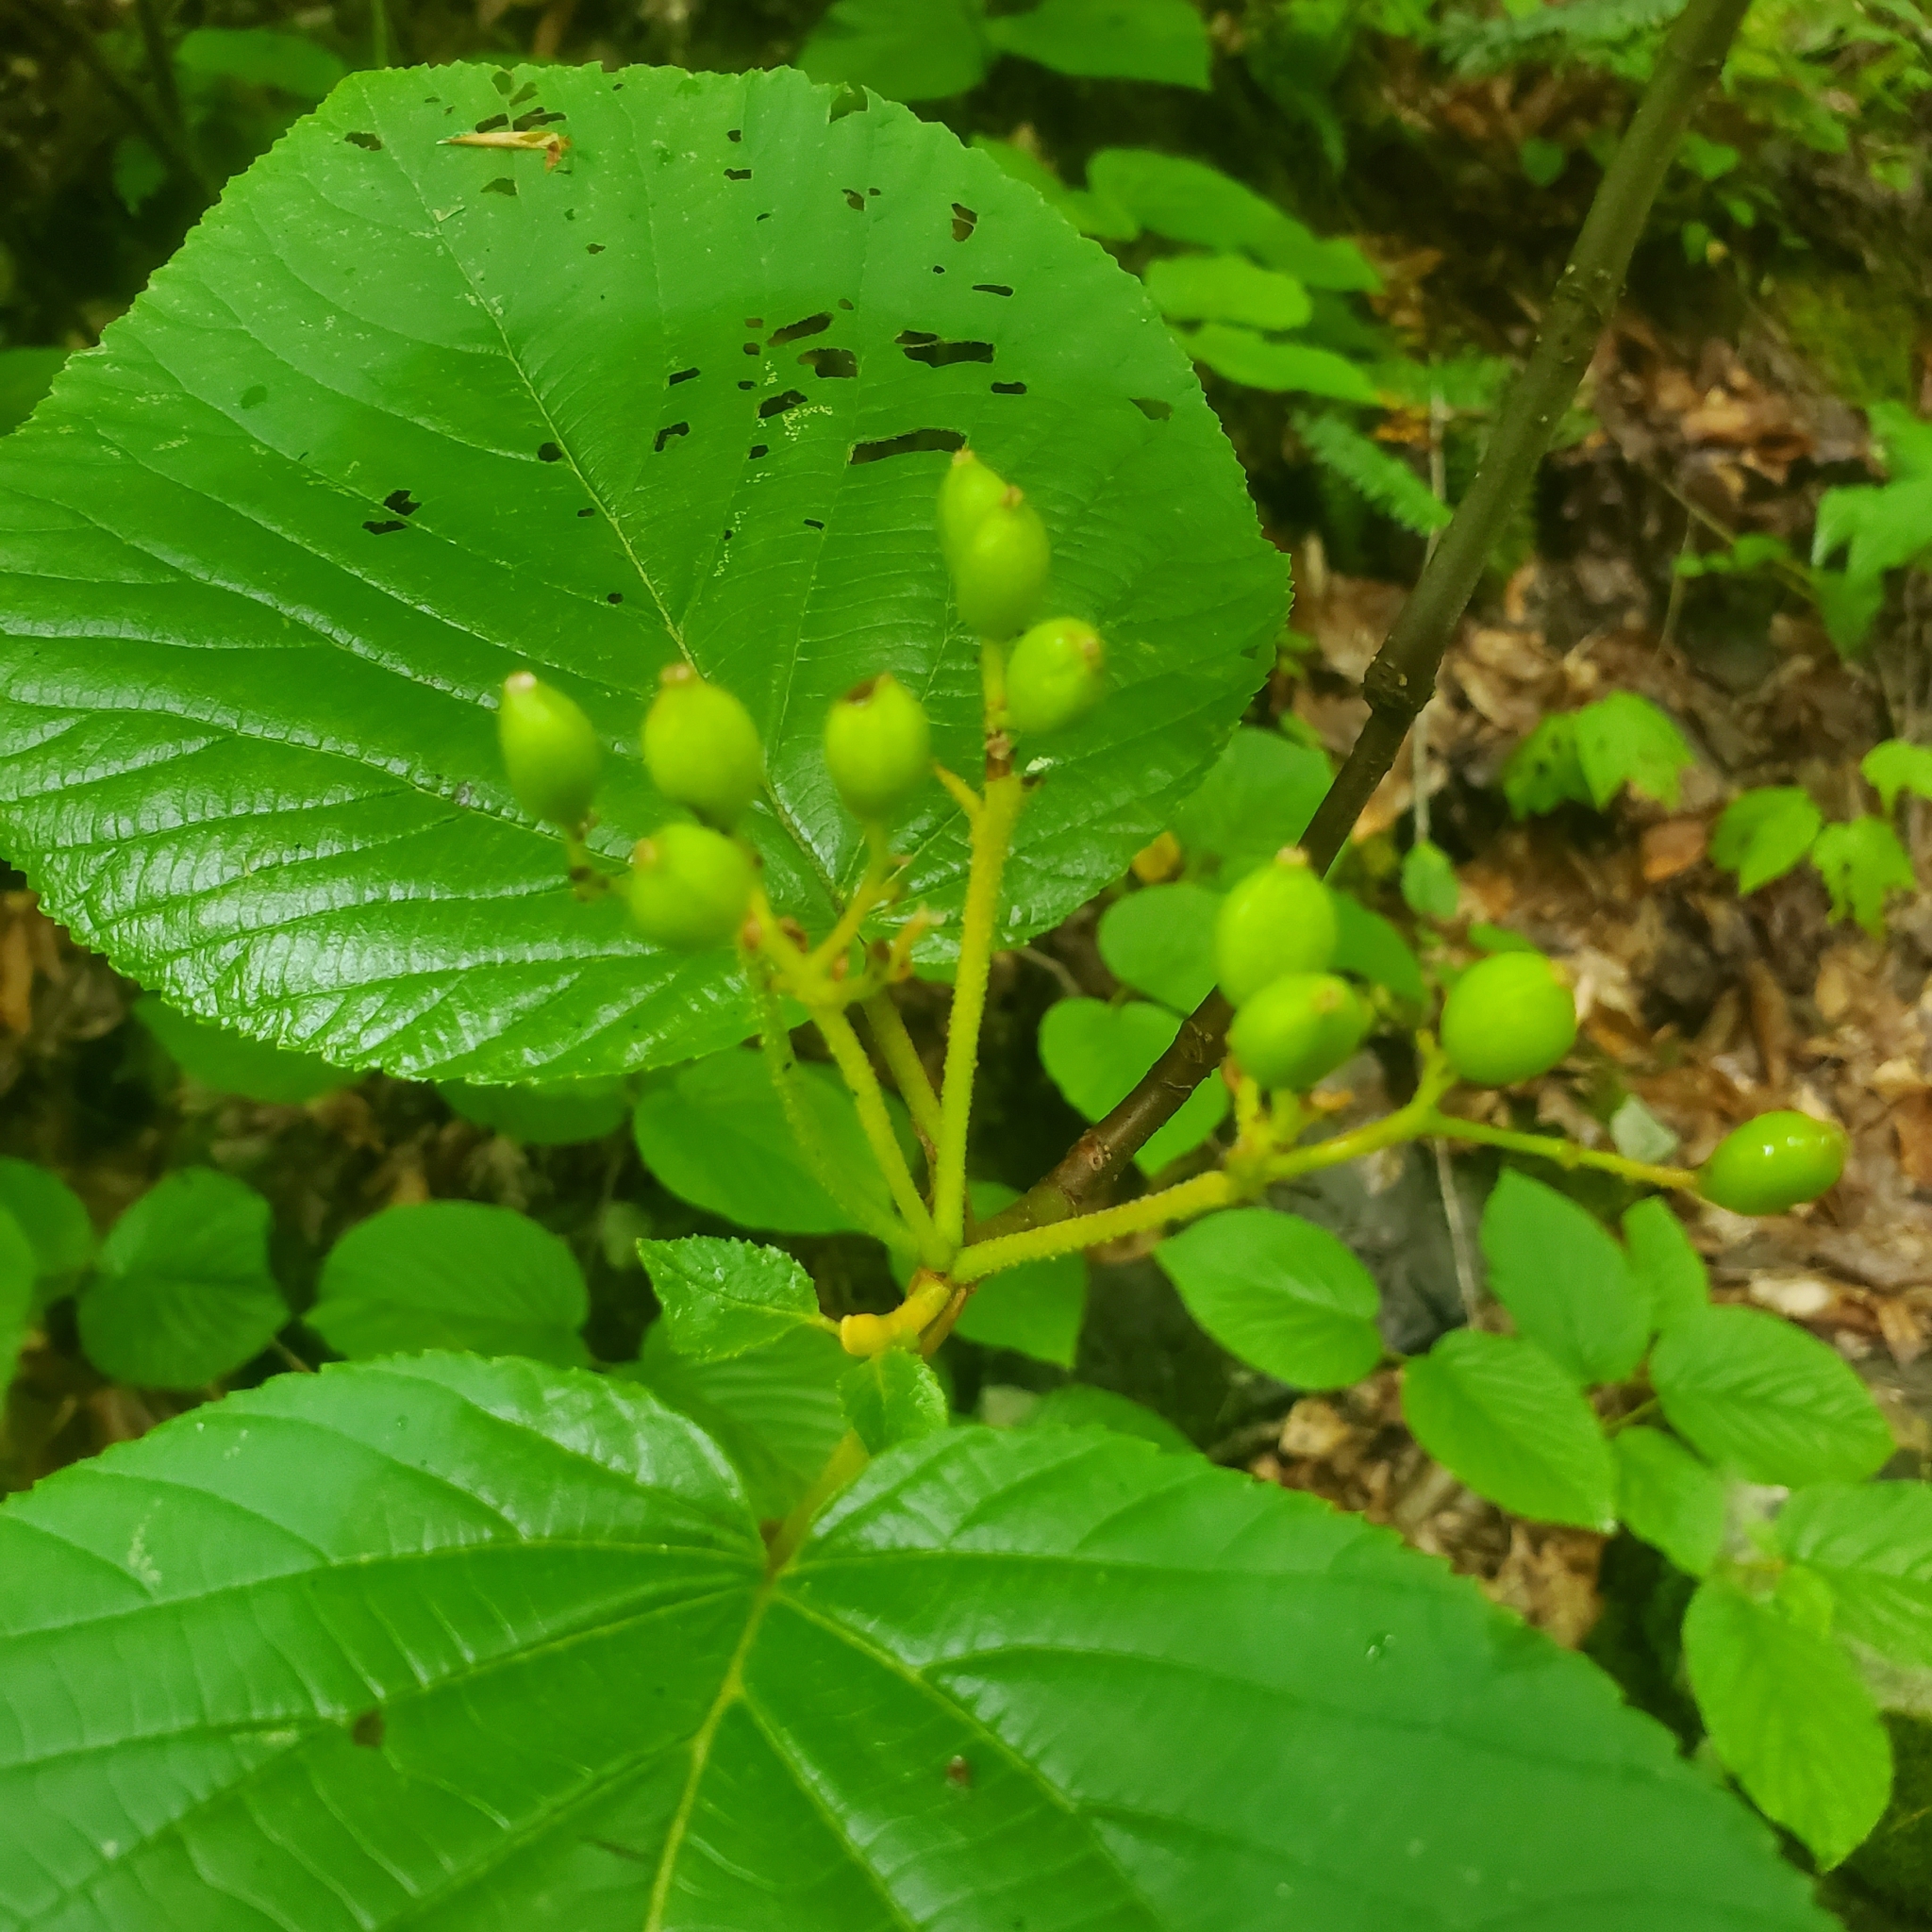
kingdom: Plantae
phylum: Tracheophyta
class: Magnoliopsida
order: Dipsacales
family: Viburnaceae
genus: Viburnum
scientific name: Viburnum lantanoides
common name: Hobblebush
